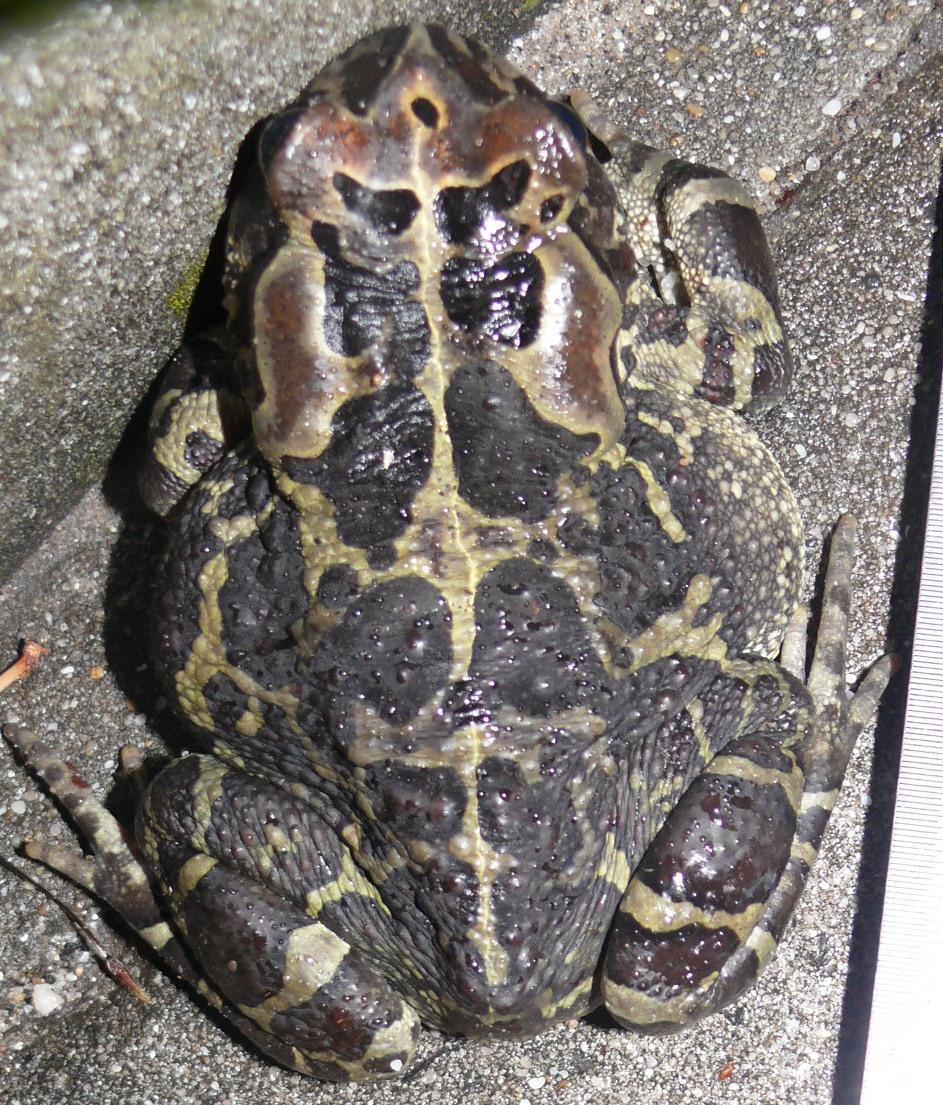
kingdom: Animalia
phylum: Chordata
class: Amphibia
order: Anura
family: Bufonidae
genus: Sclerophrys
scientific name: Sclerophrys pantherina
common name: Panther toad
